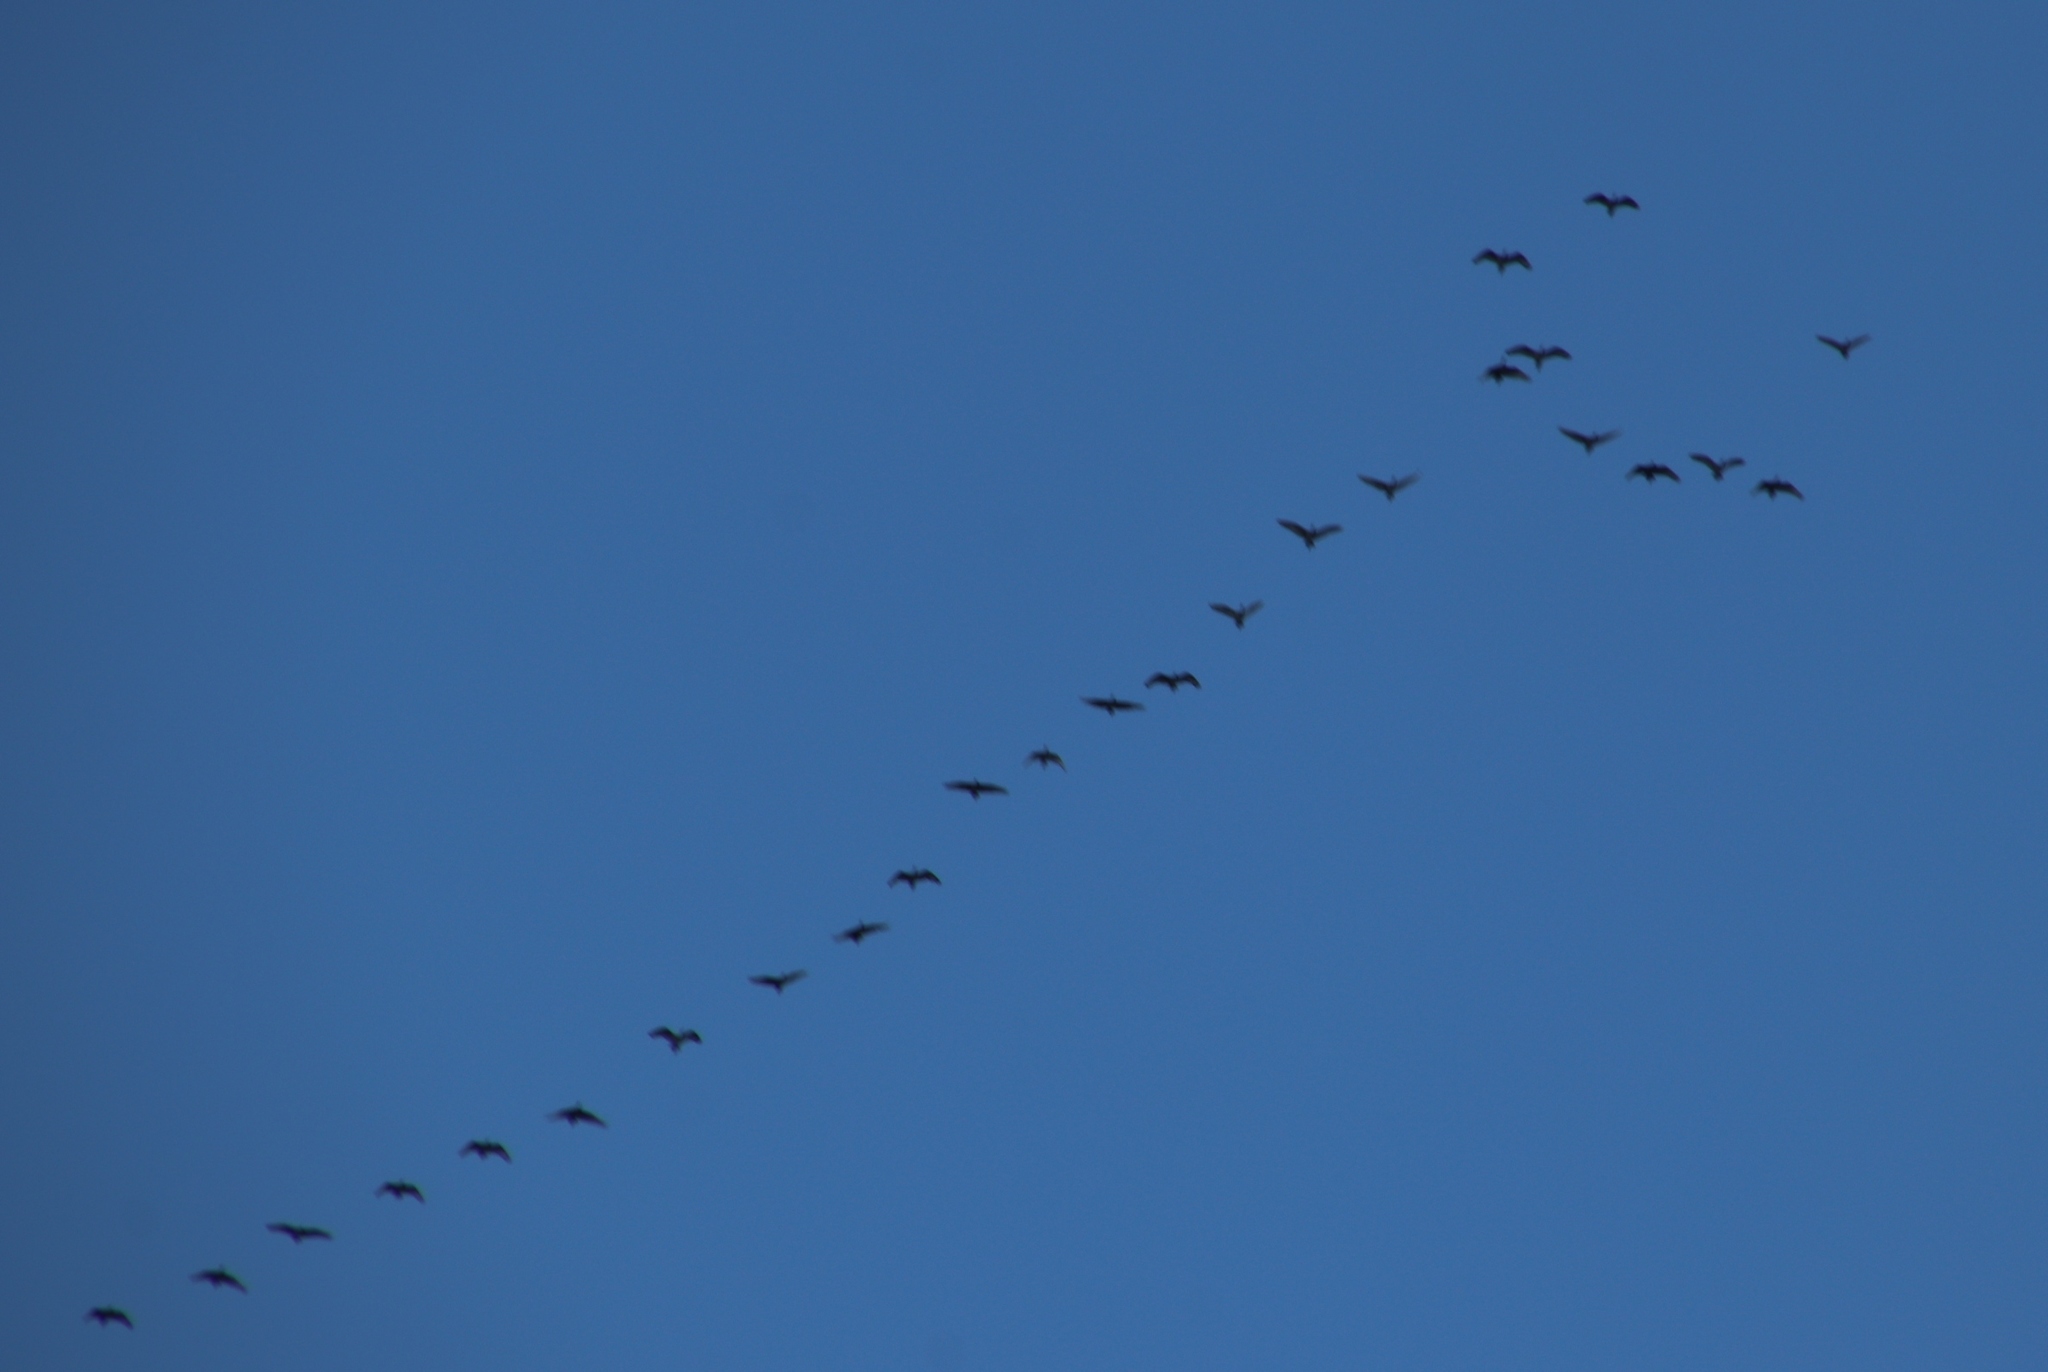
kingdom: Animalia
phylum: Chordata
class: Aves
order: Pelecaniformes
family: Threskiornithidae
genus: Threskiornis
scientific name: Threskiornis aethiopicus
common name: Sacred ibis
